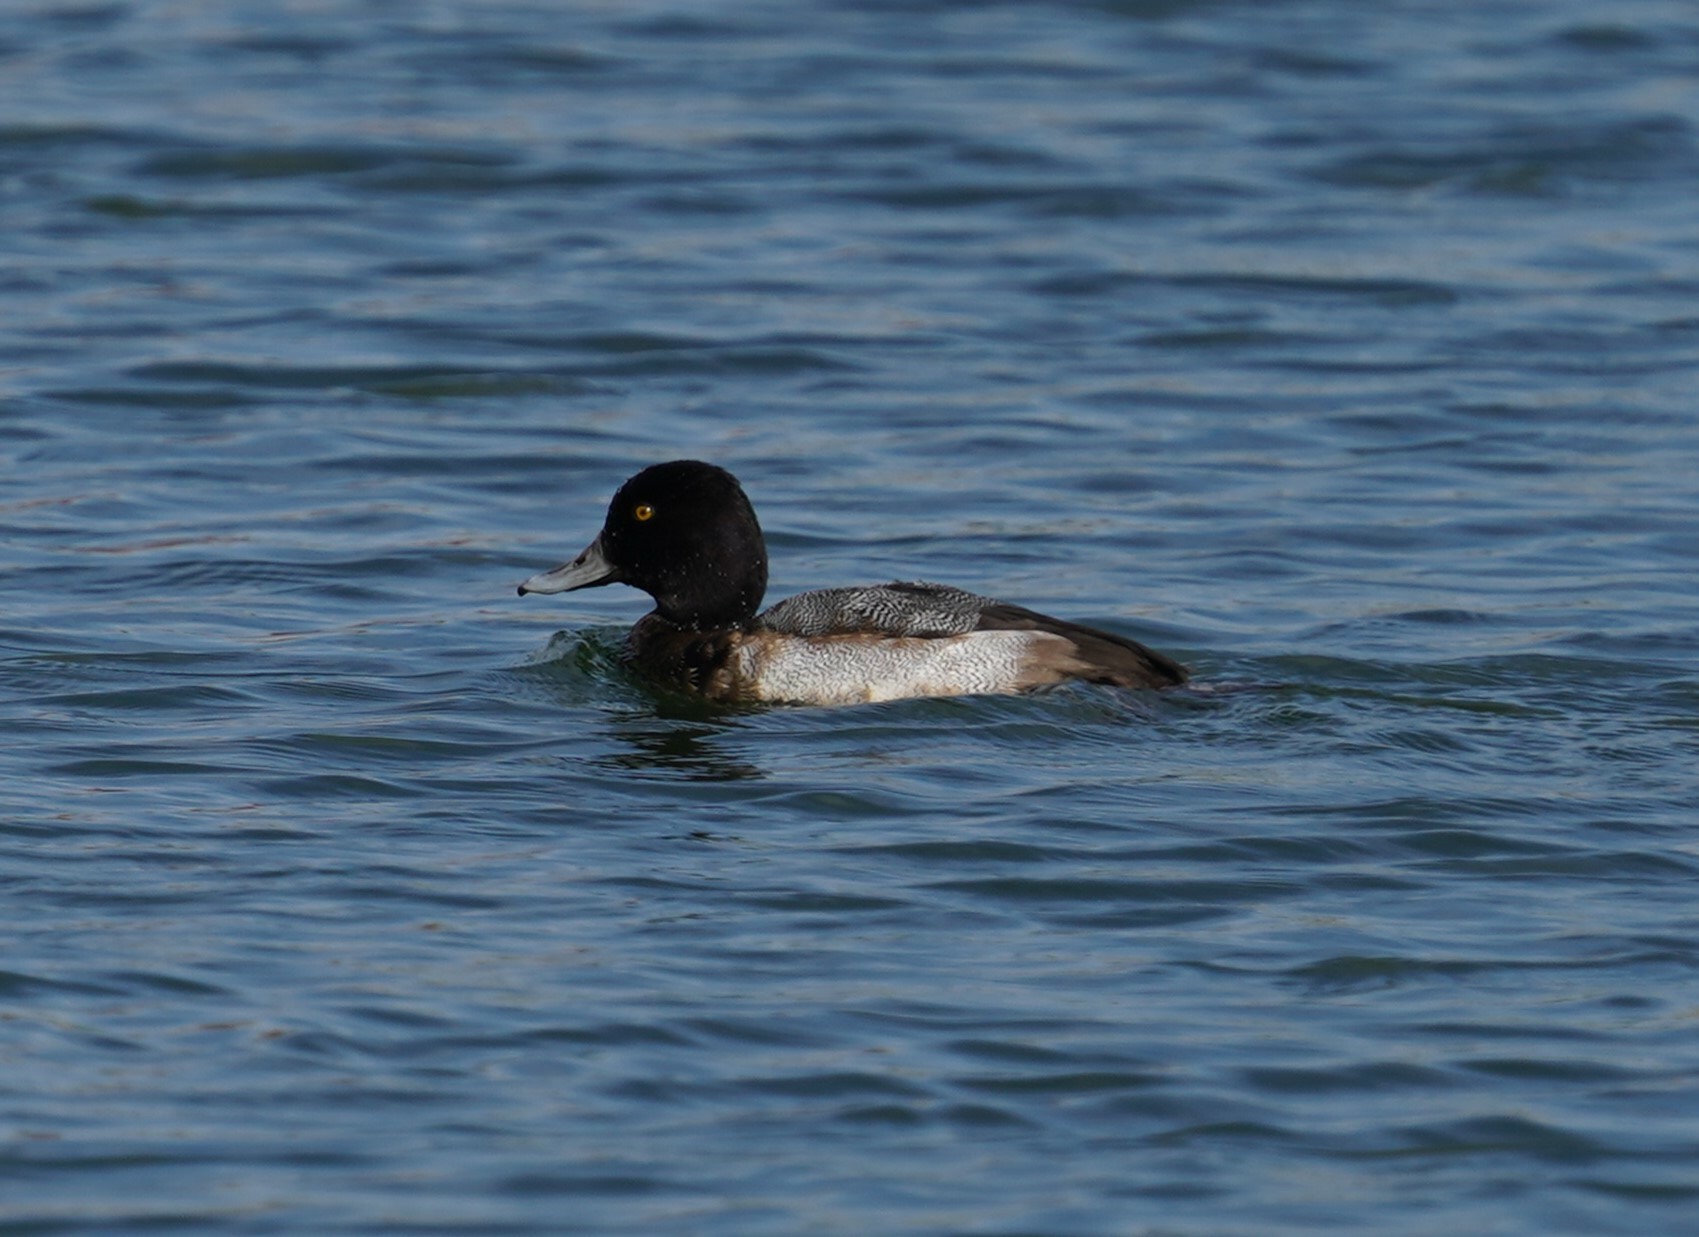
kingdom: Animalia
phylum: Chordata
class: Aves
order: Anseriformes
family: Anatidae
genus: Aythya
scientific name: Aythya affinis
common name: Lesser scaup
